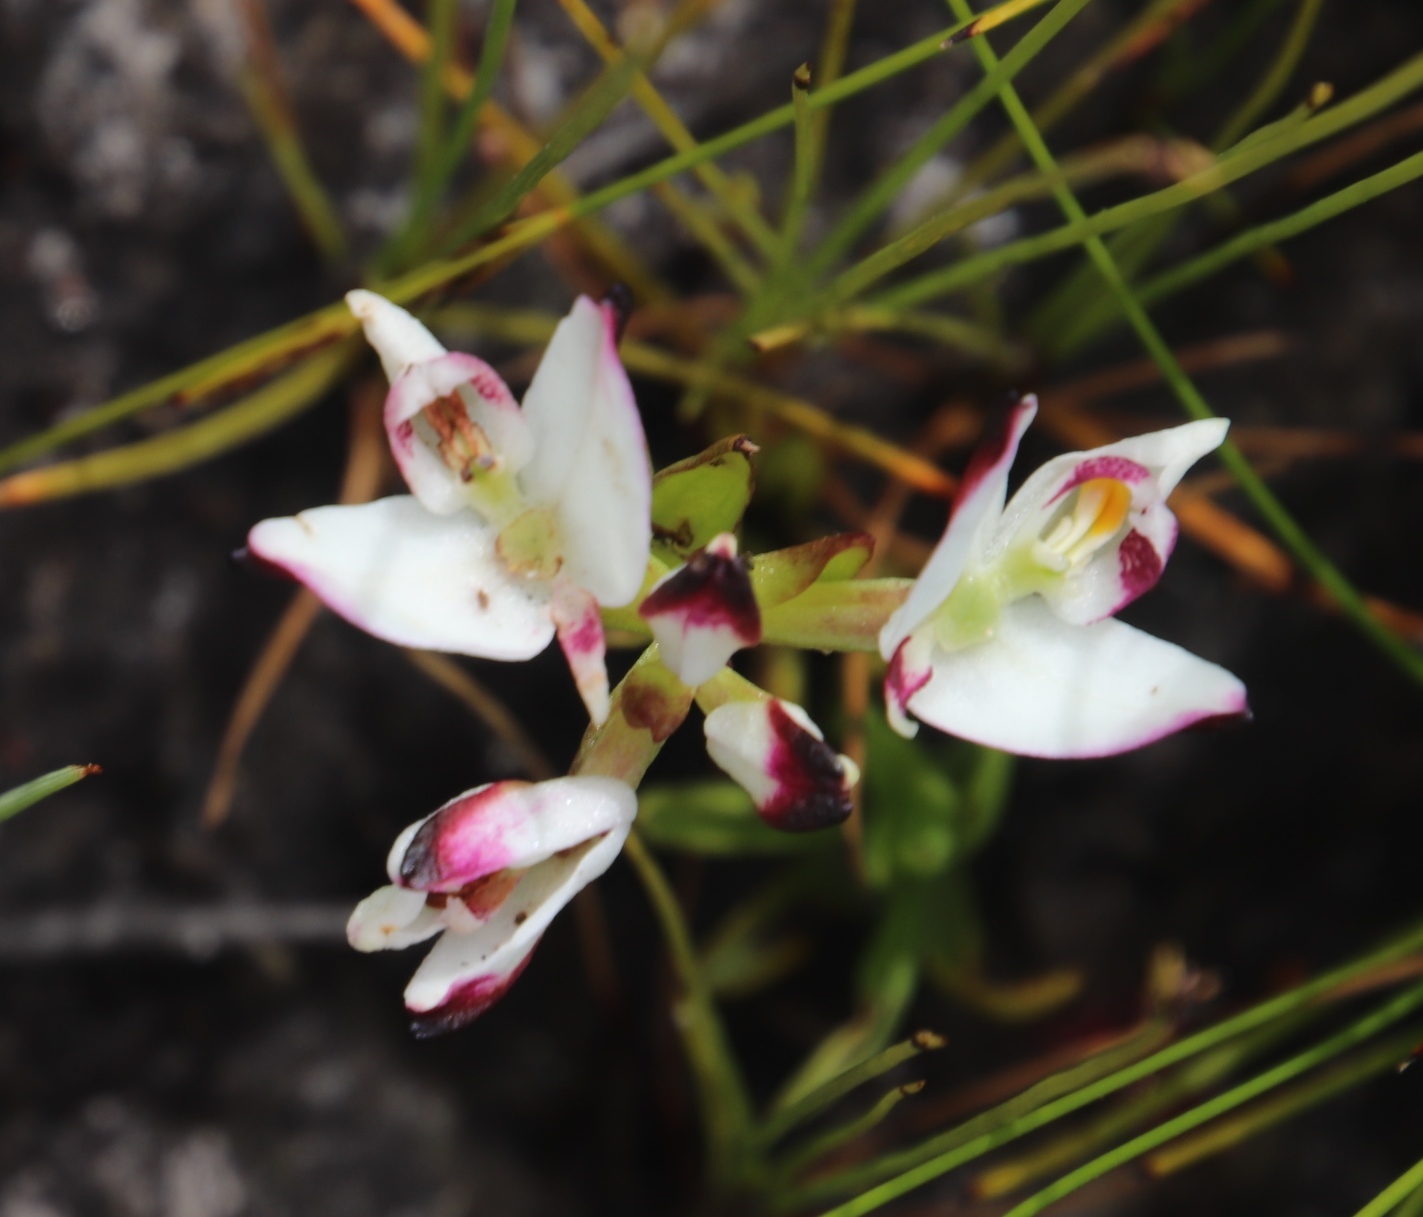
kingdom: Plantae
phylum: Tracheophyta
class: Liliopsida
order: Asparagales
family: Orchidaceae
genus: Disa
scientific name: Disa bivalvata
